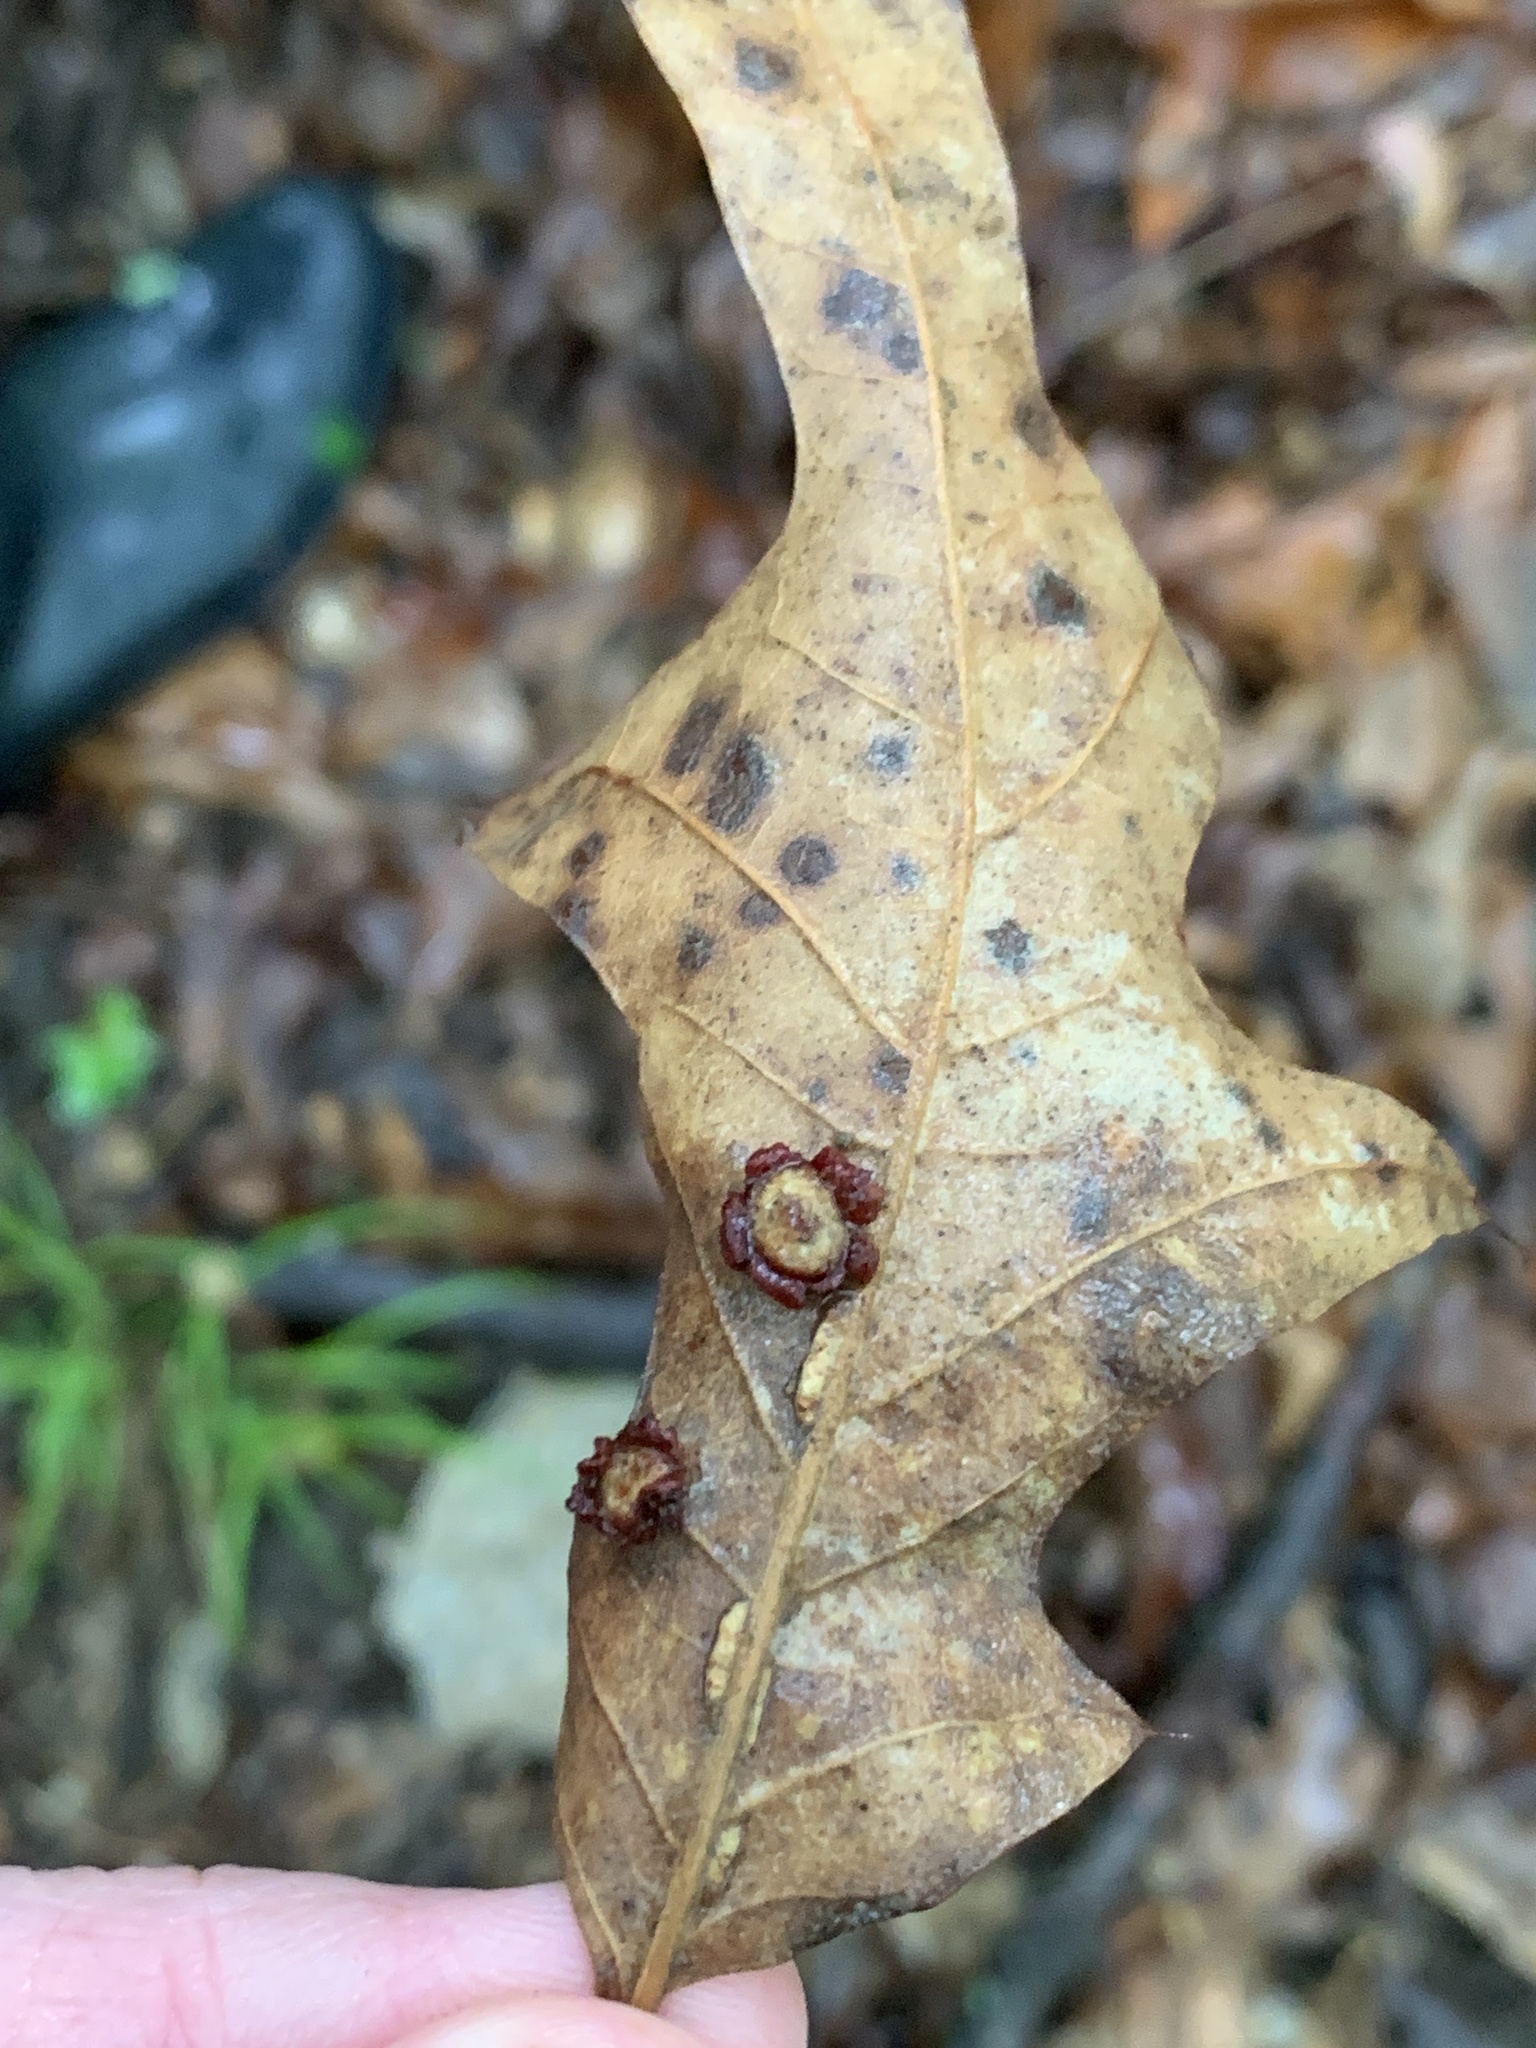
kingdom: Animalia
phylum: Arthropoda
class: Insecta
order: Diptera
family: Cecidomyiidae
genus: Polystepha
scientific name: Polystepha symmetrica
